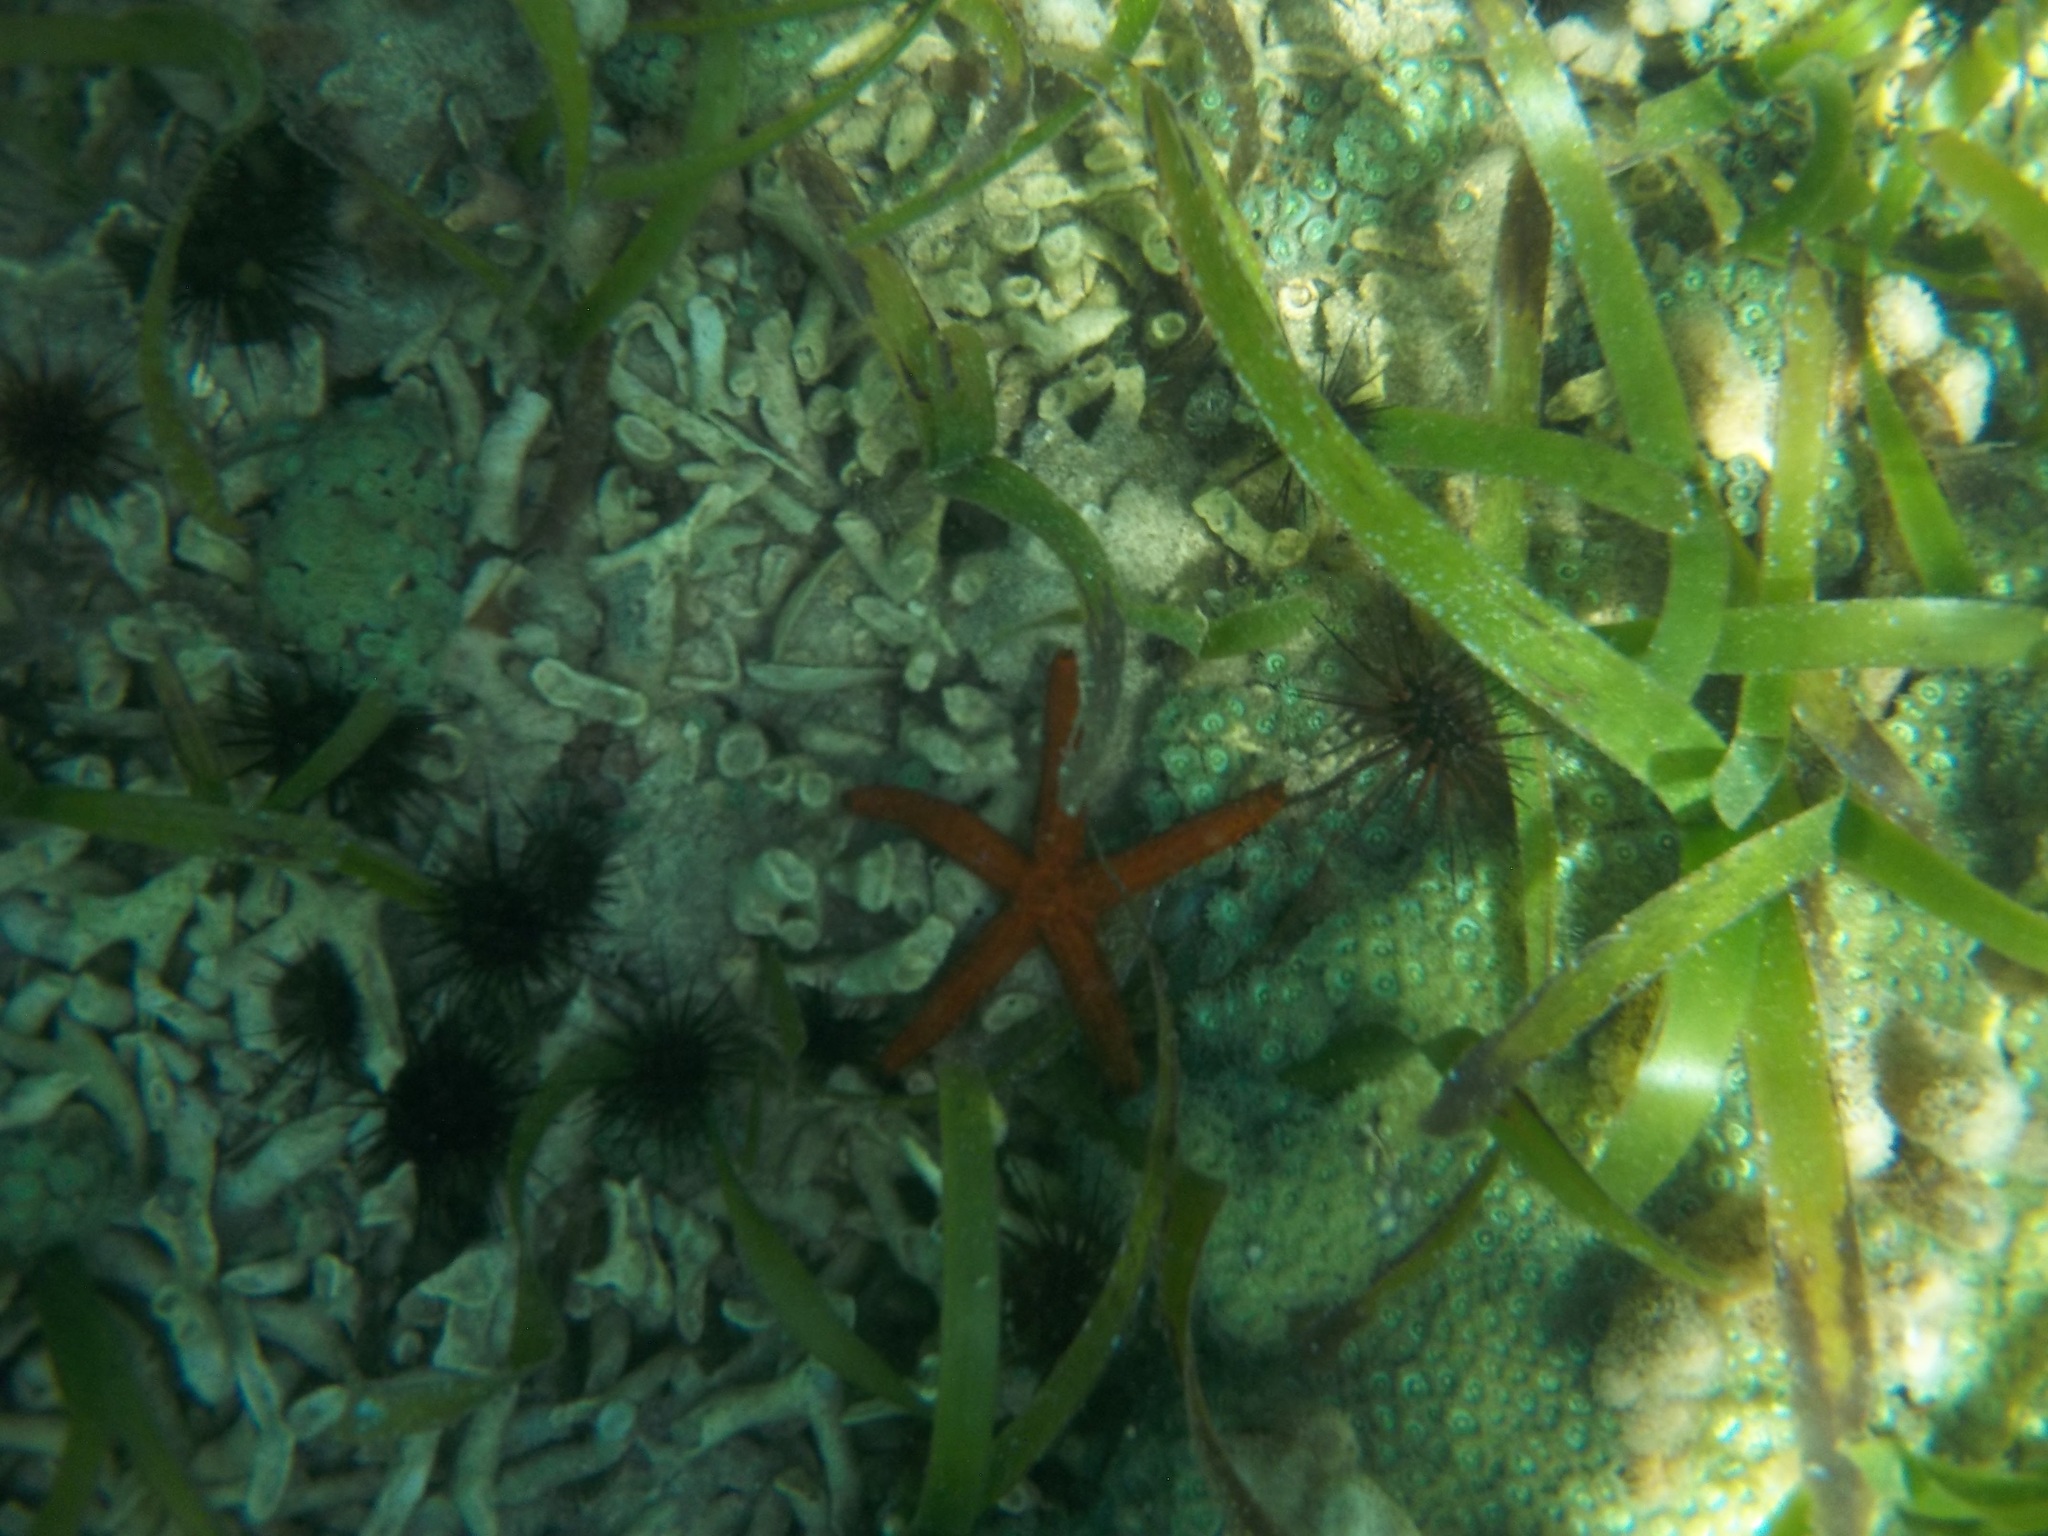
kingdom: Animalia
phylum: Echinodermata
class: Asteroidea
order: Valvatida
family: Ophidiasteridae
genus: Ophidiaster
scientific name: Ophidiaster guildingi
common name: Guilding's star
